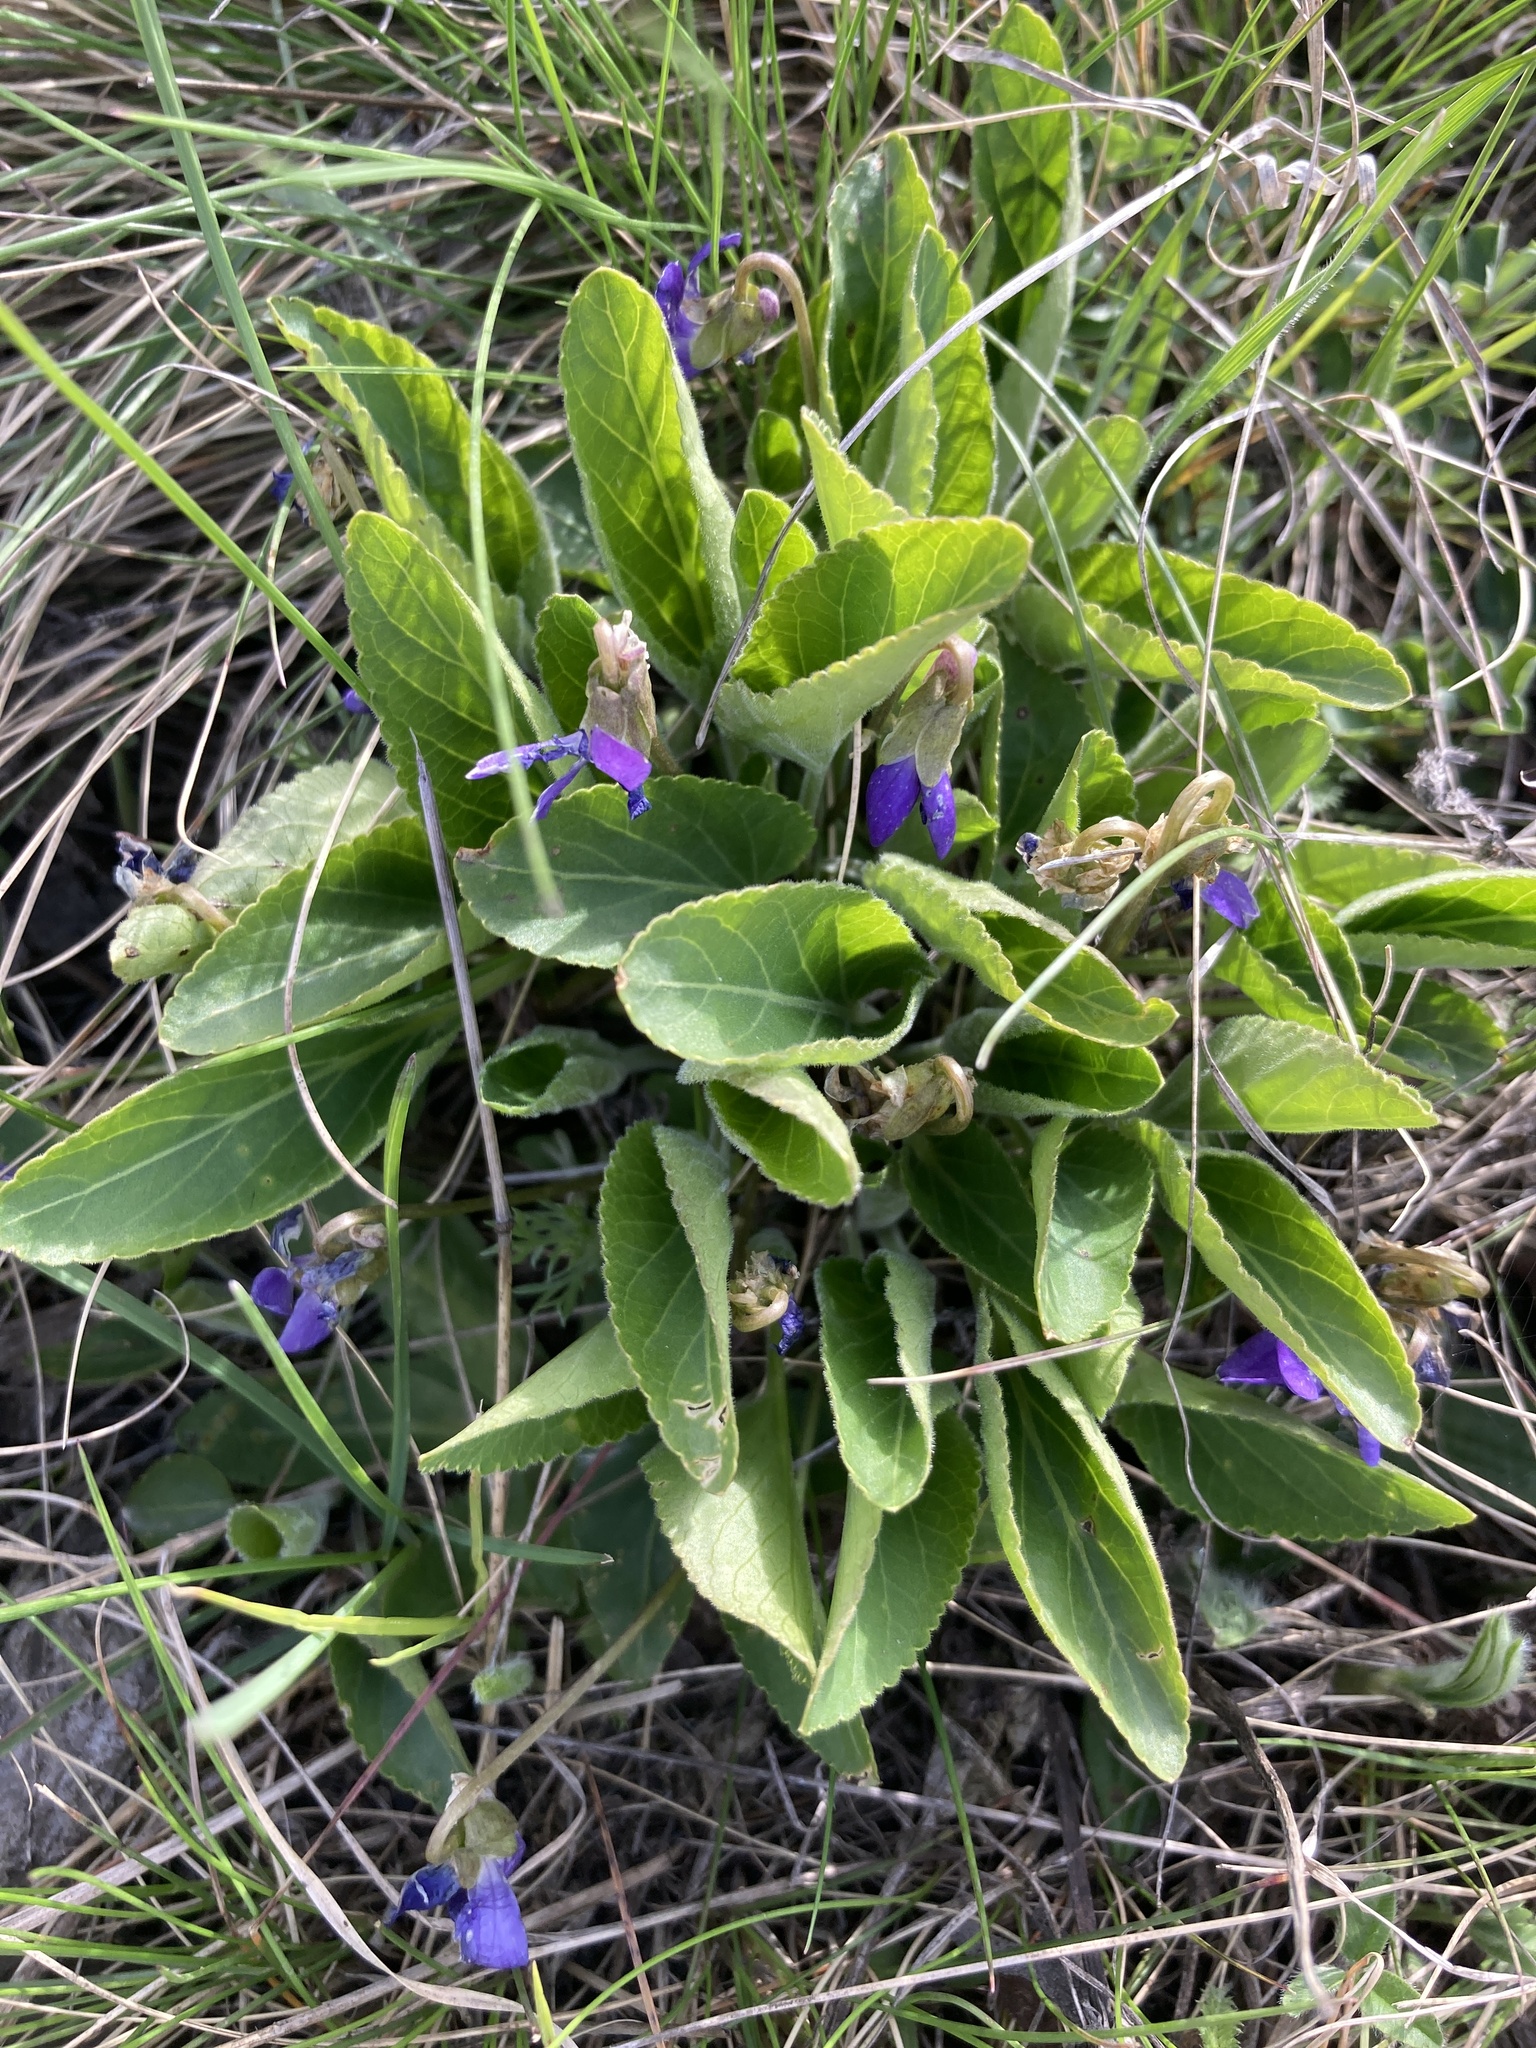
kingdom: Plantae
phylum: Tracheophyta
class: Magnoliopsida
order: Malpighiales
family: Violaceae
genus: Viola
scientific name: Viola ambigua
